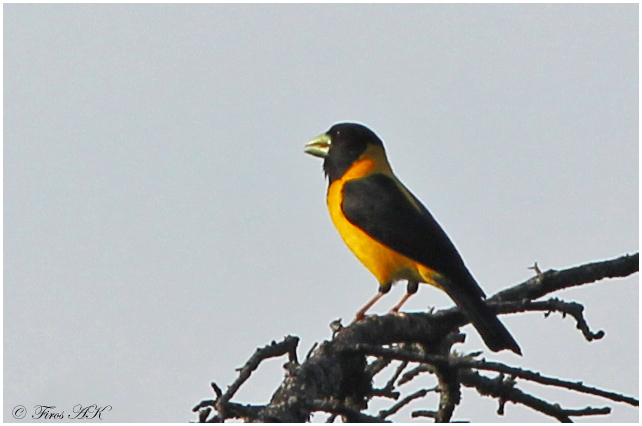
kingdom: Animalia
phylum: Chordata
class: Aves
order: Passeriformes
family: Fringillidae
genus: Mycerobas
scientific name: Mycerobas affinis
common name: Collared grosbeak
